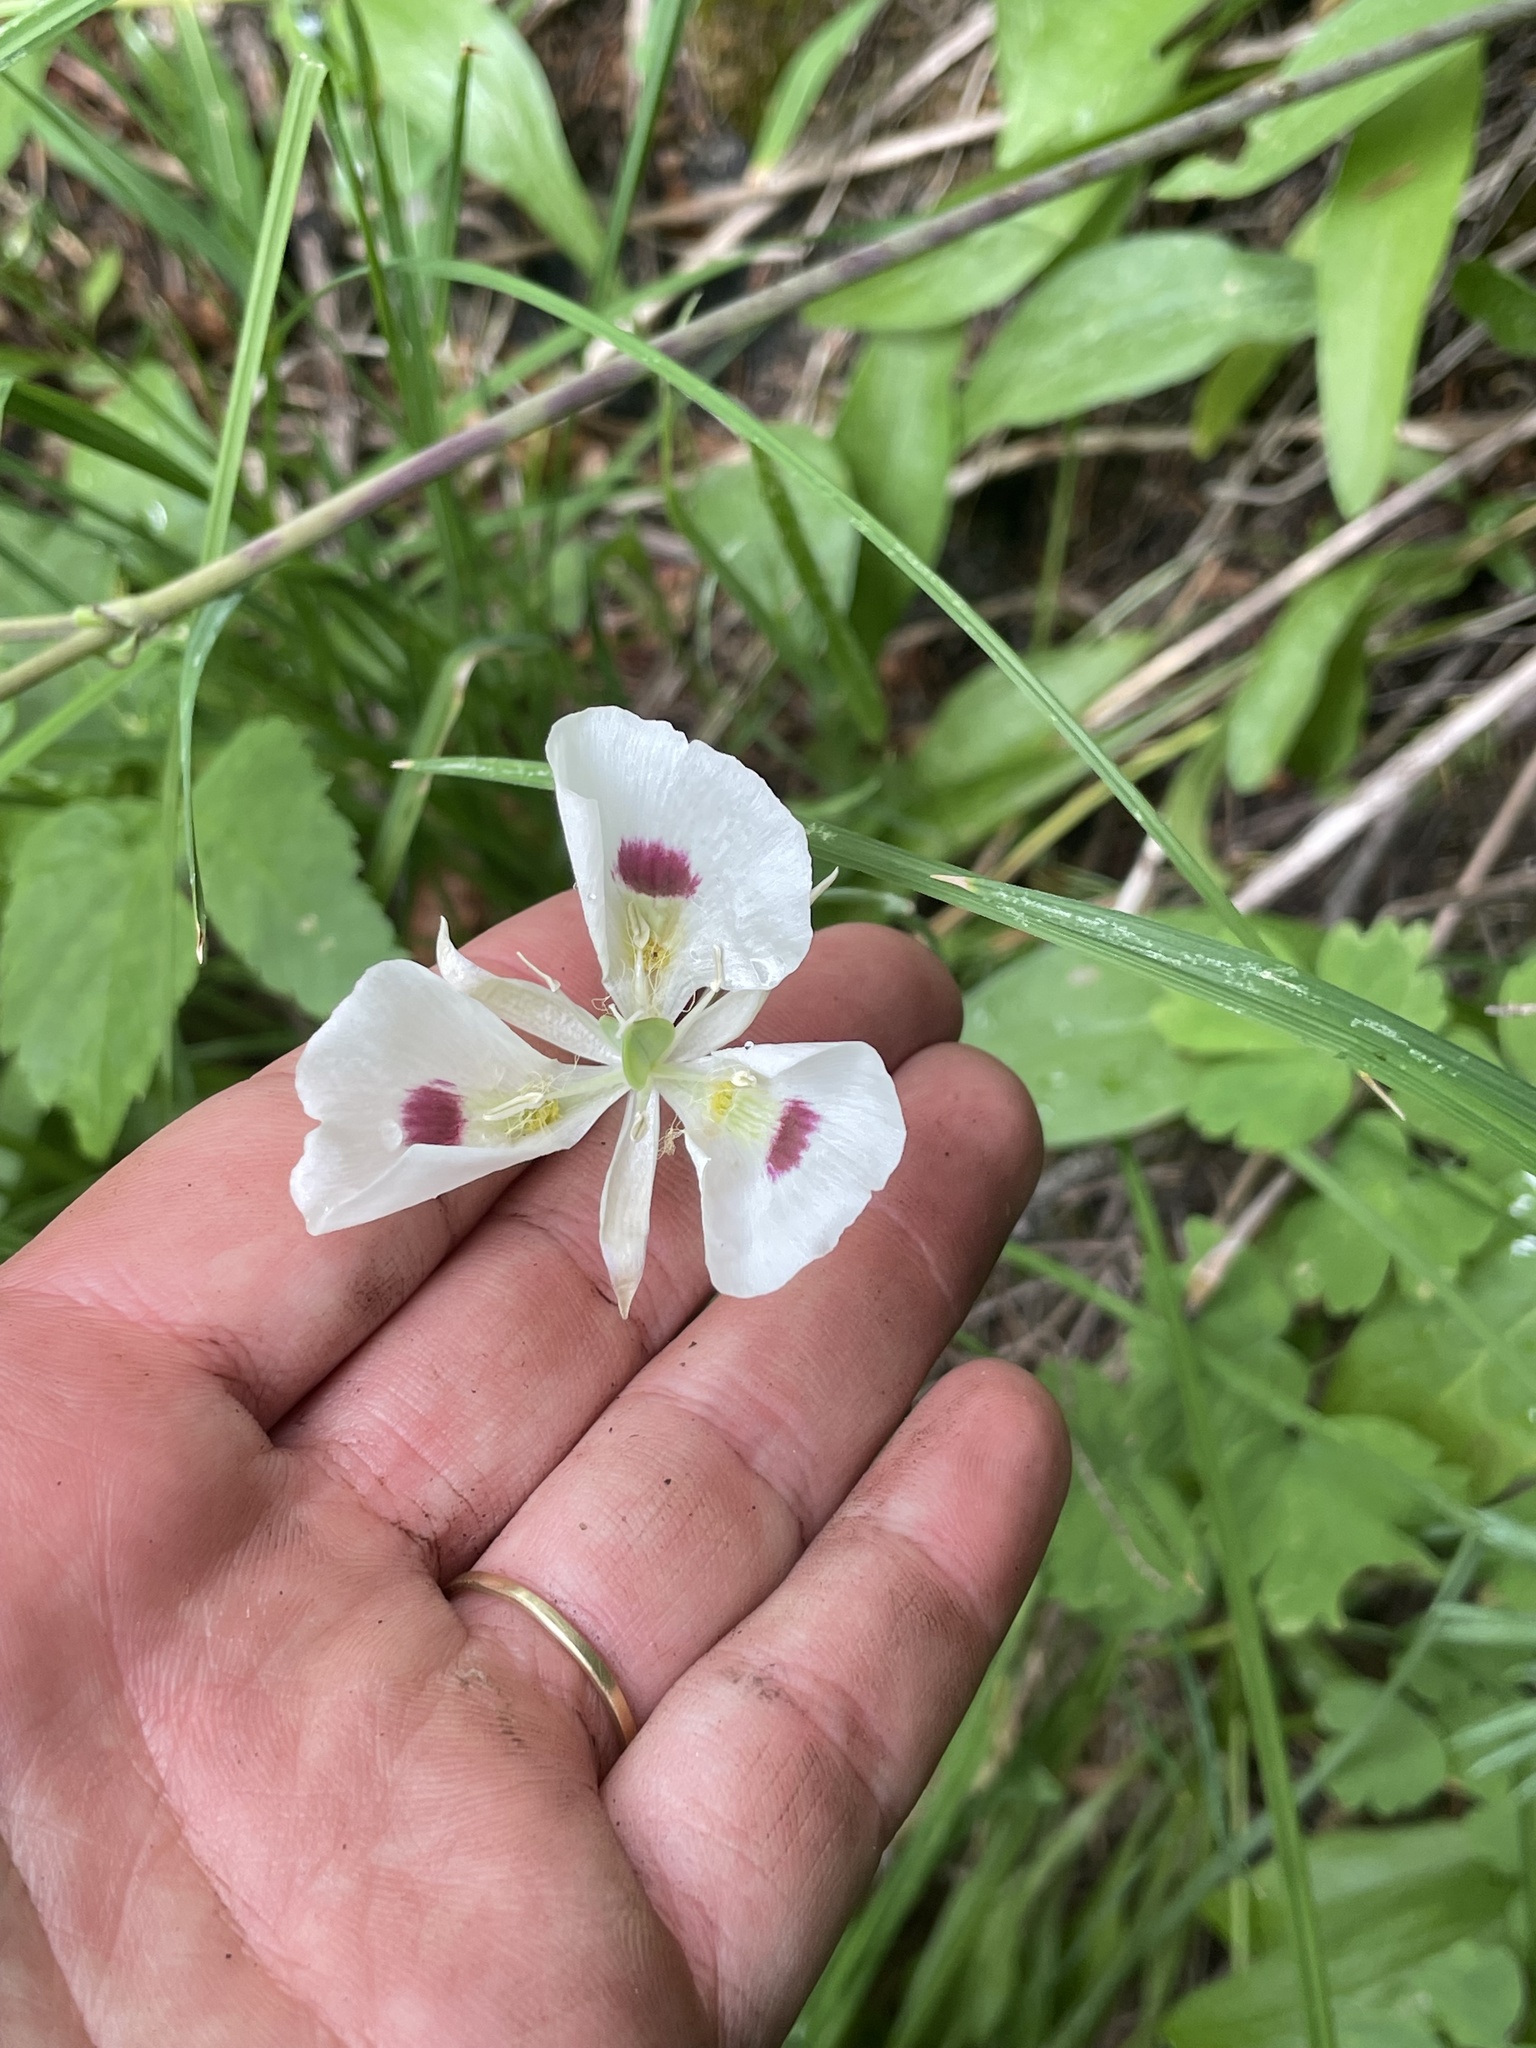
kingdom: Plantae
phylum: Tracheophyta
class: Liliopsida
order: Liliales
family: Liliaceae
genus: Calochortus
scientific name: Calochortus eurycarpus
